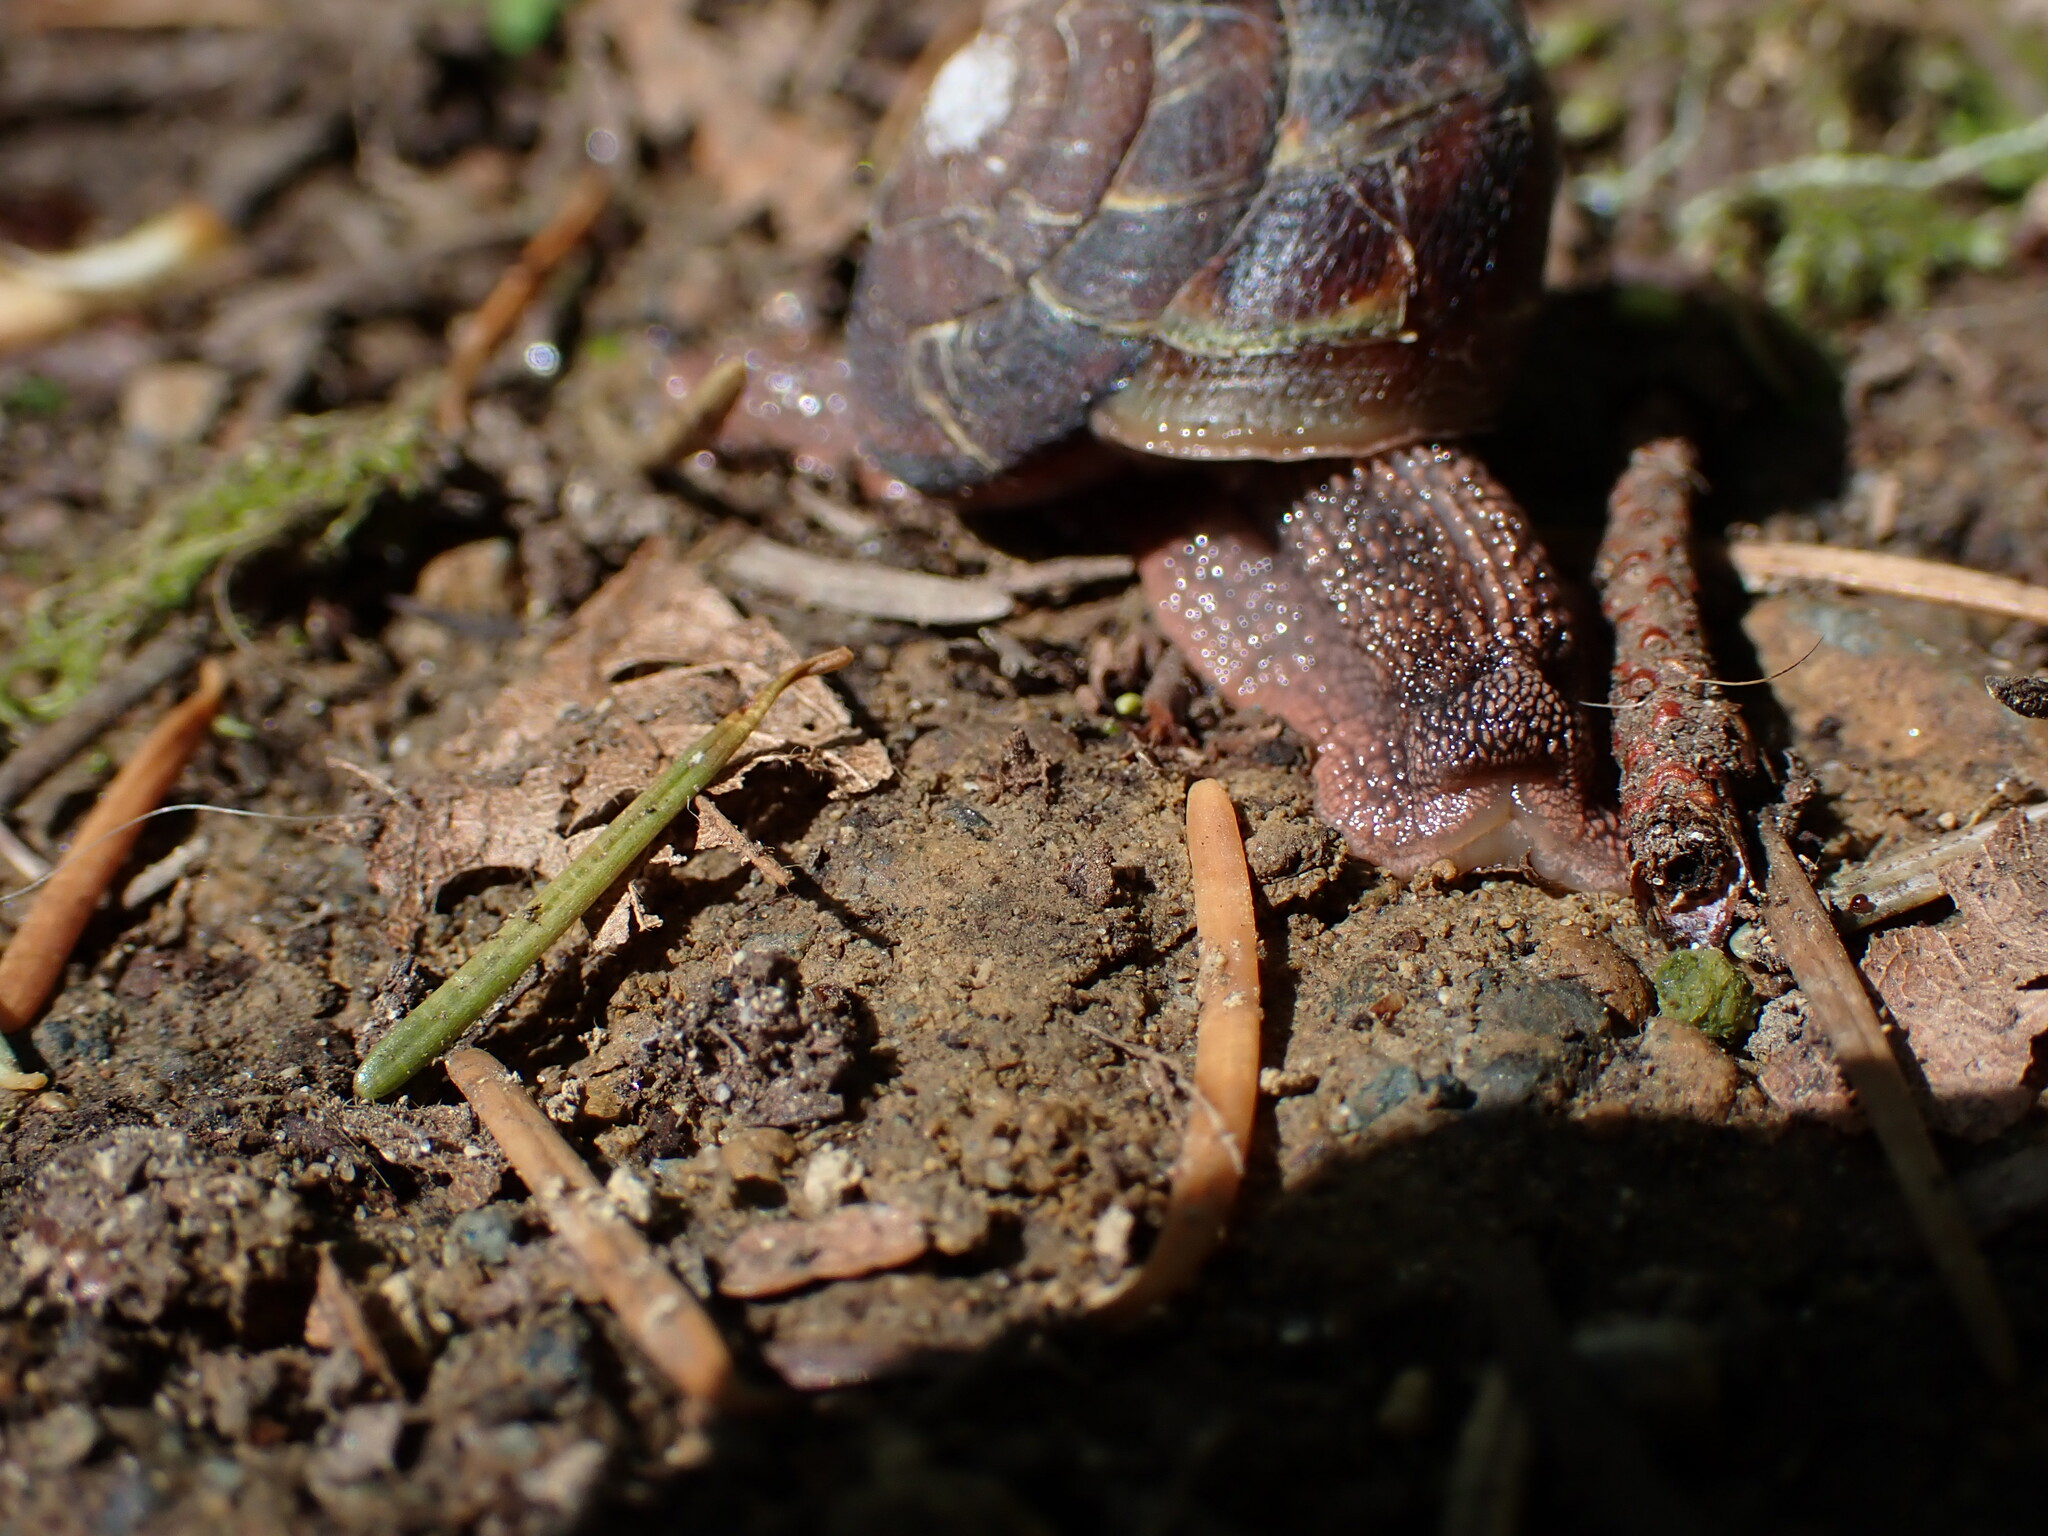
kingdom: Animalia
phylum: Mollusca
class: Gastropoda
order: Stylommatophora
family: Xanthonychidae
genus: Monadenia
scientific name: Monadenia fidelis
